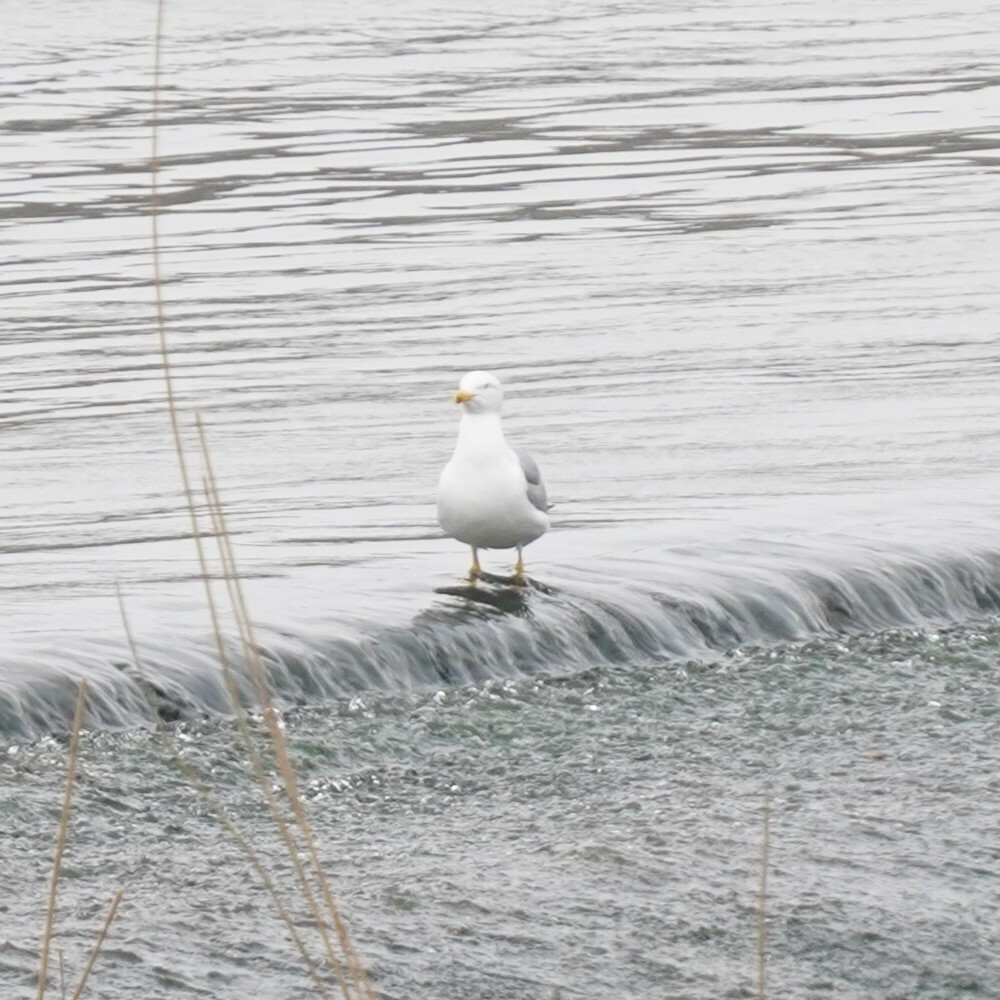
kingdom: Animalia
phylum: Chordata
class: Aves
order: Charadriiformes
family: Laridae
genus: Larus
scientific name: Larus cachinnans
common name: Caspian gull
